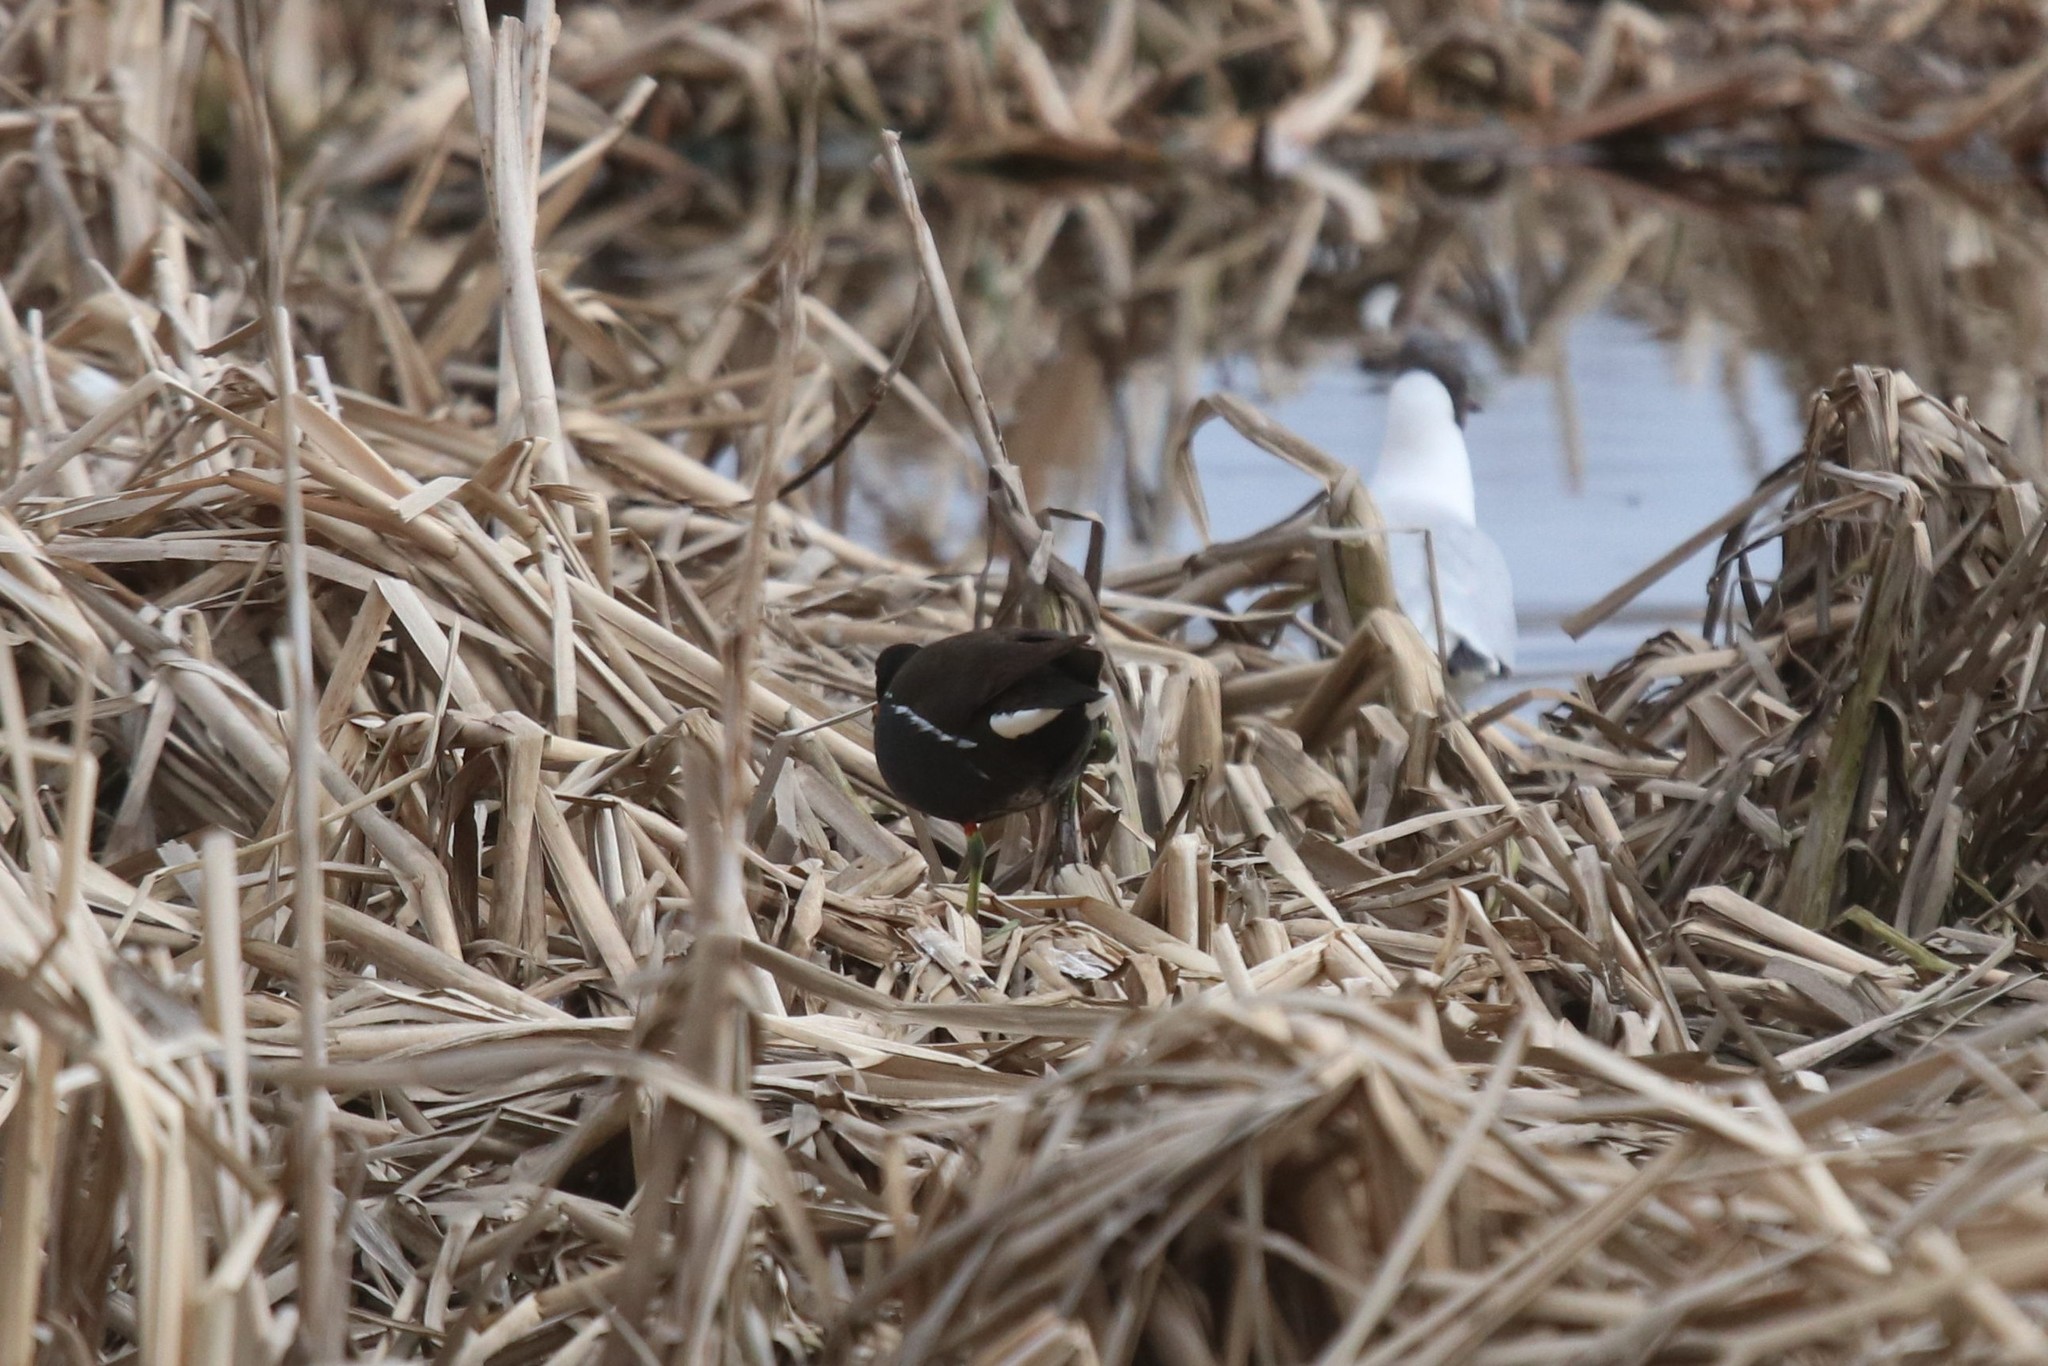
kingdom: Animalia
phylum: Chordata
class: Aves
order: Gruiformes
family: Rallidae
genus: Gallinula
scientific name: Gallinula chloropus
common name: Common moorhen
